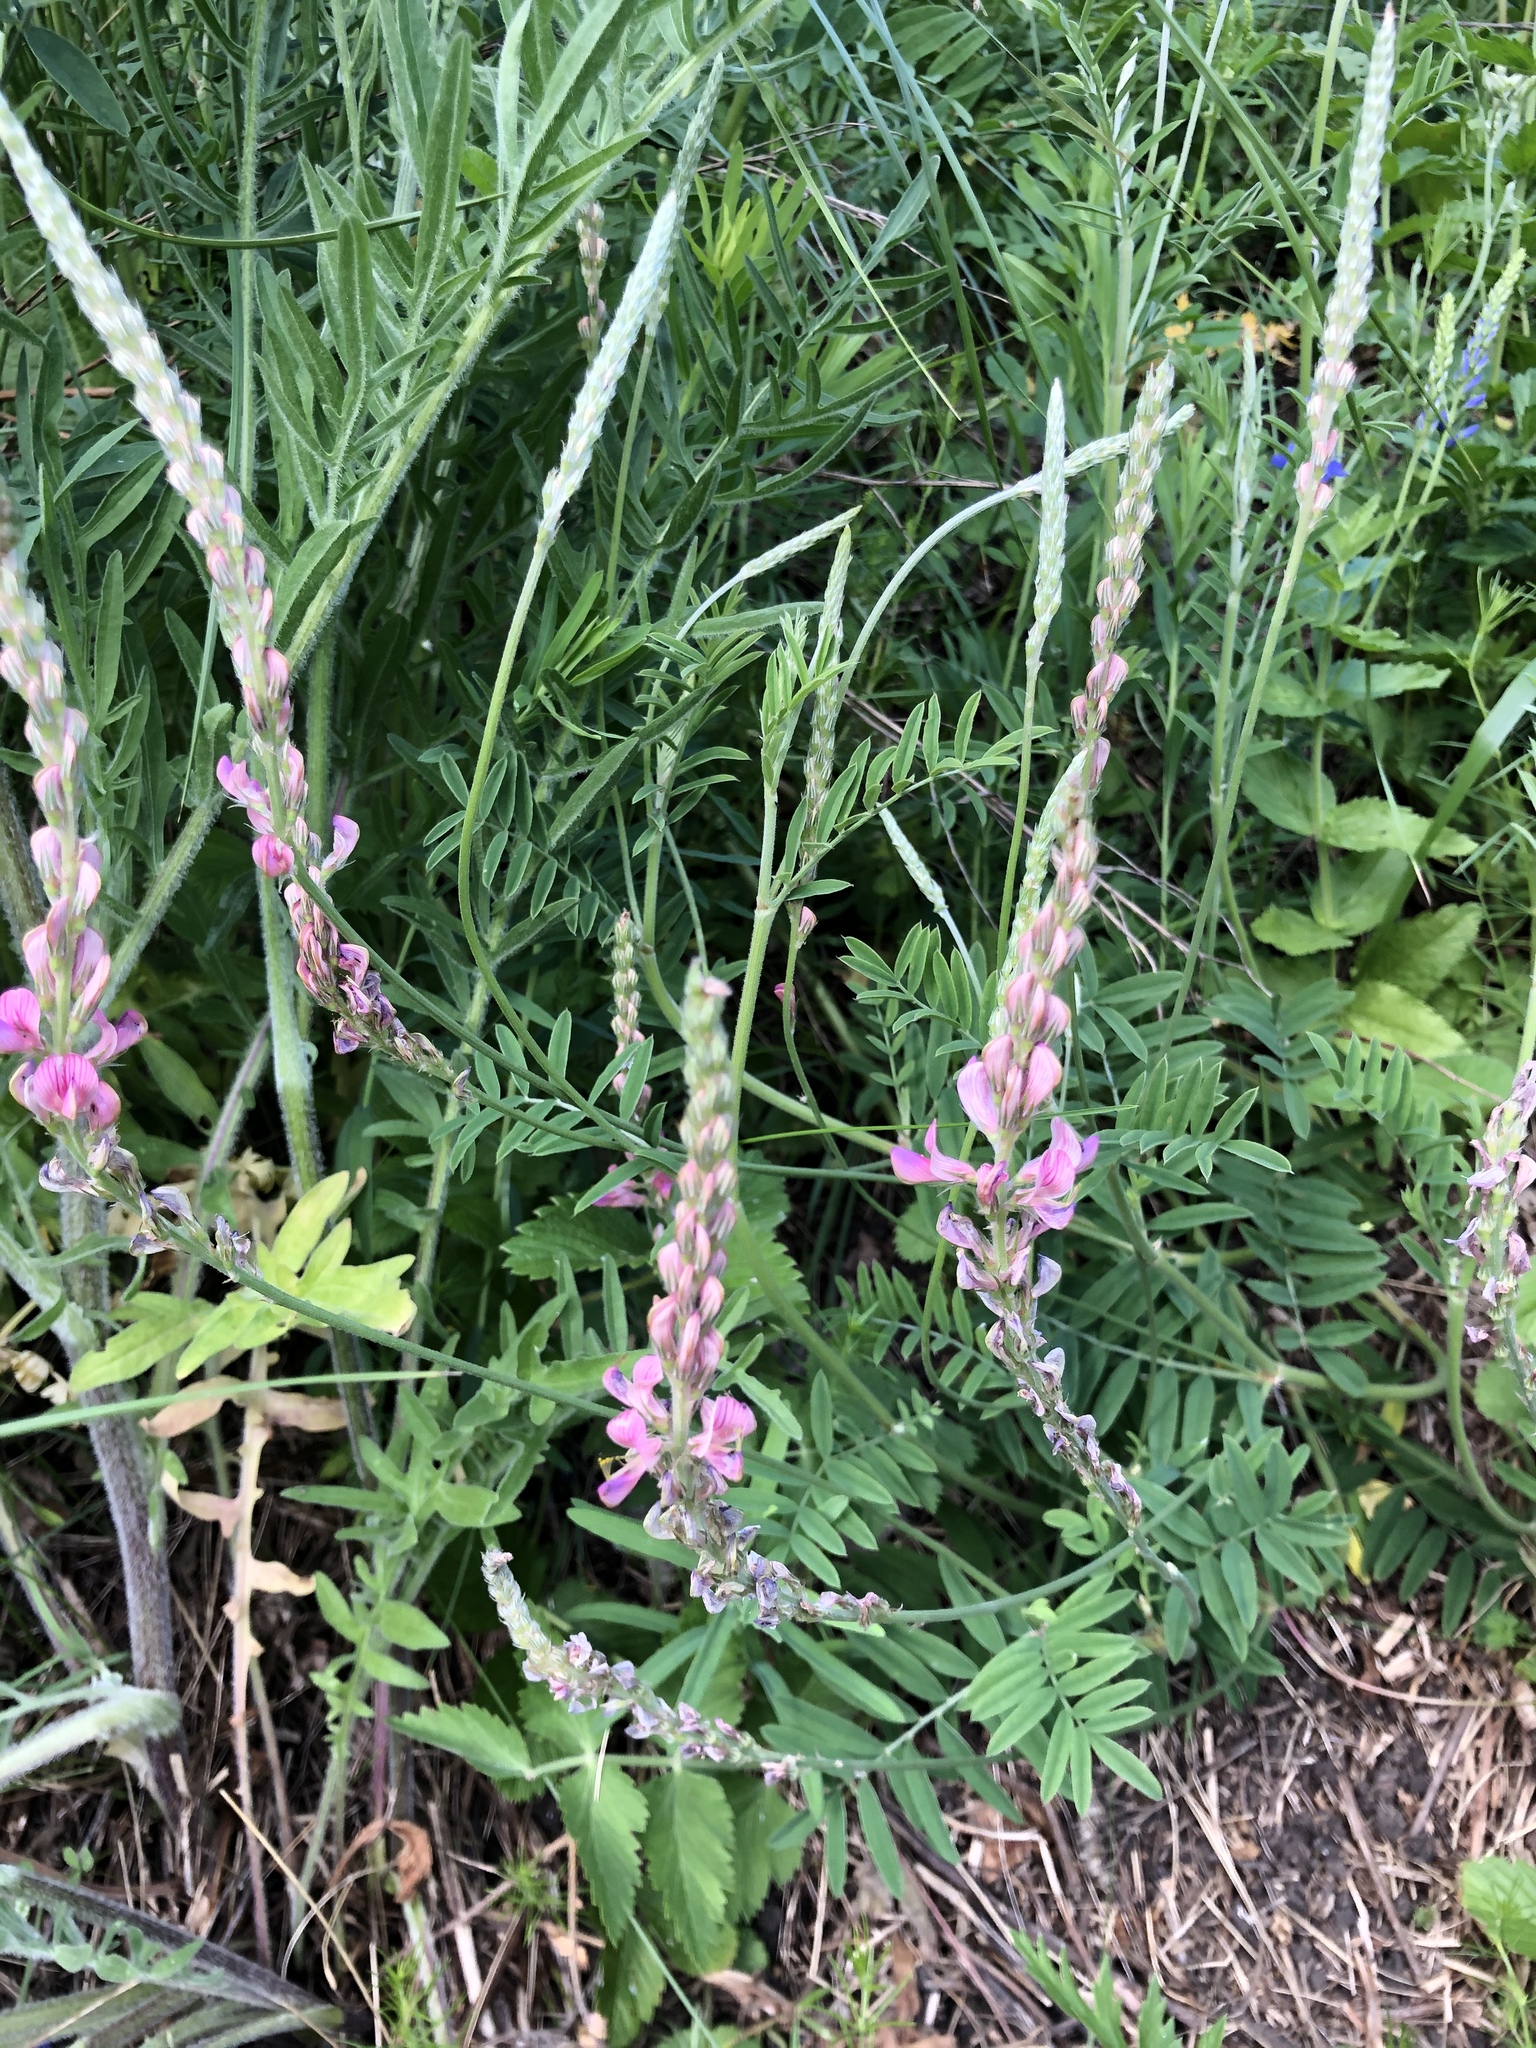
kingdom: Plantae
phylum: Tracheophyta
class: Magnoliopsida
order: Fabales
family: Fabaceae
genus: Onobrychis
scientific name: Onobrychis viciifolia
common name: Sainfoin
